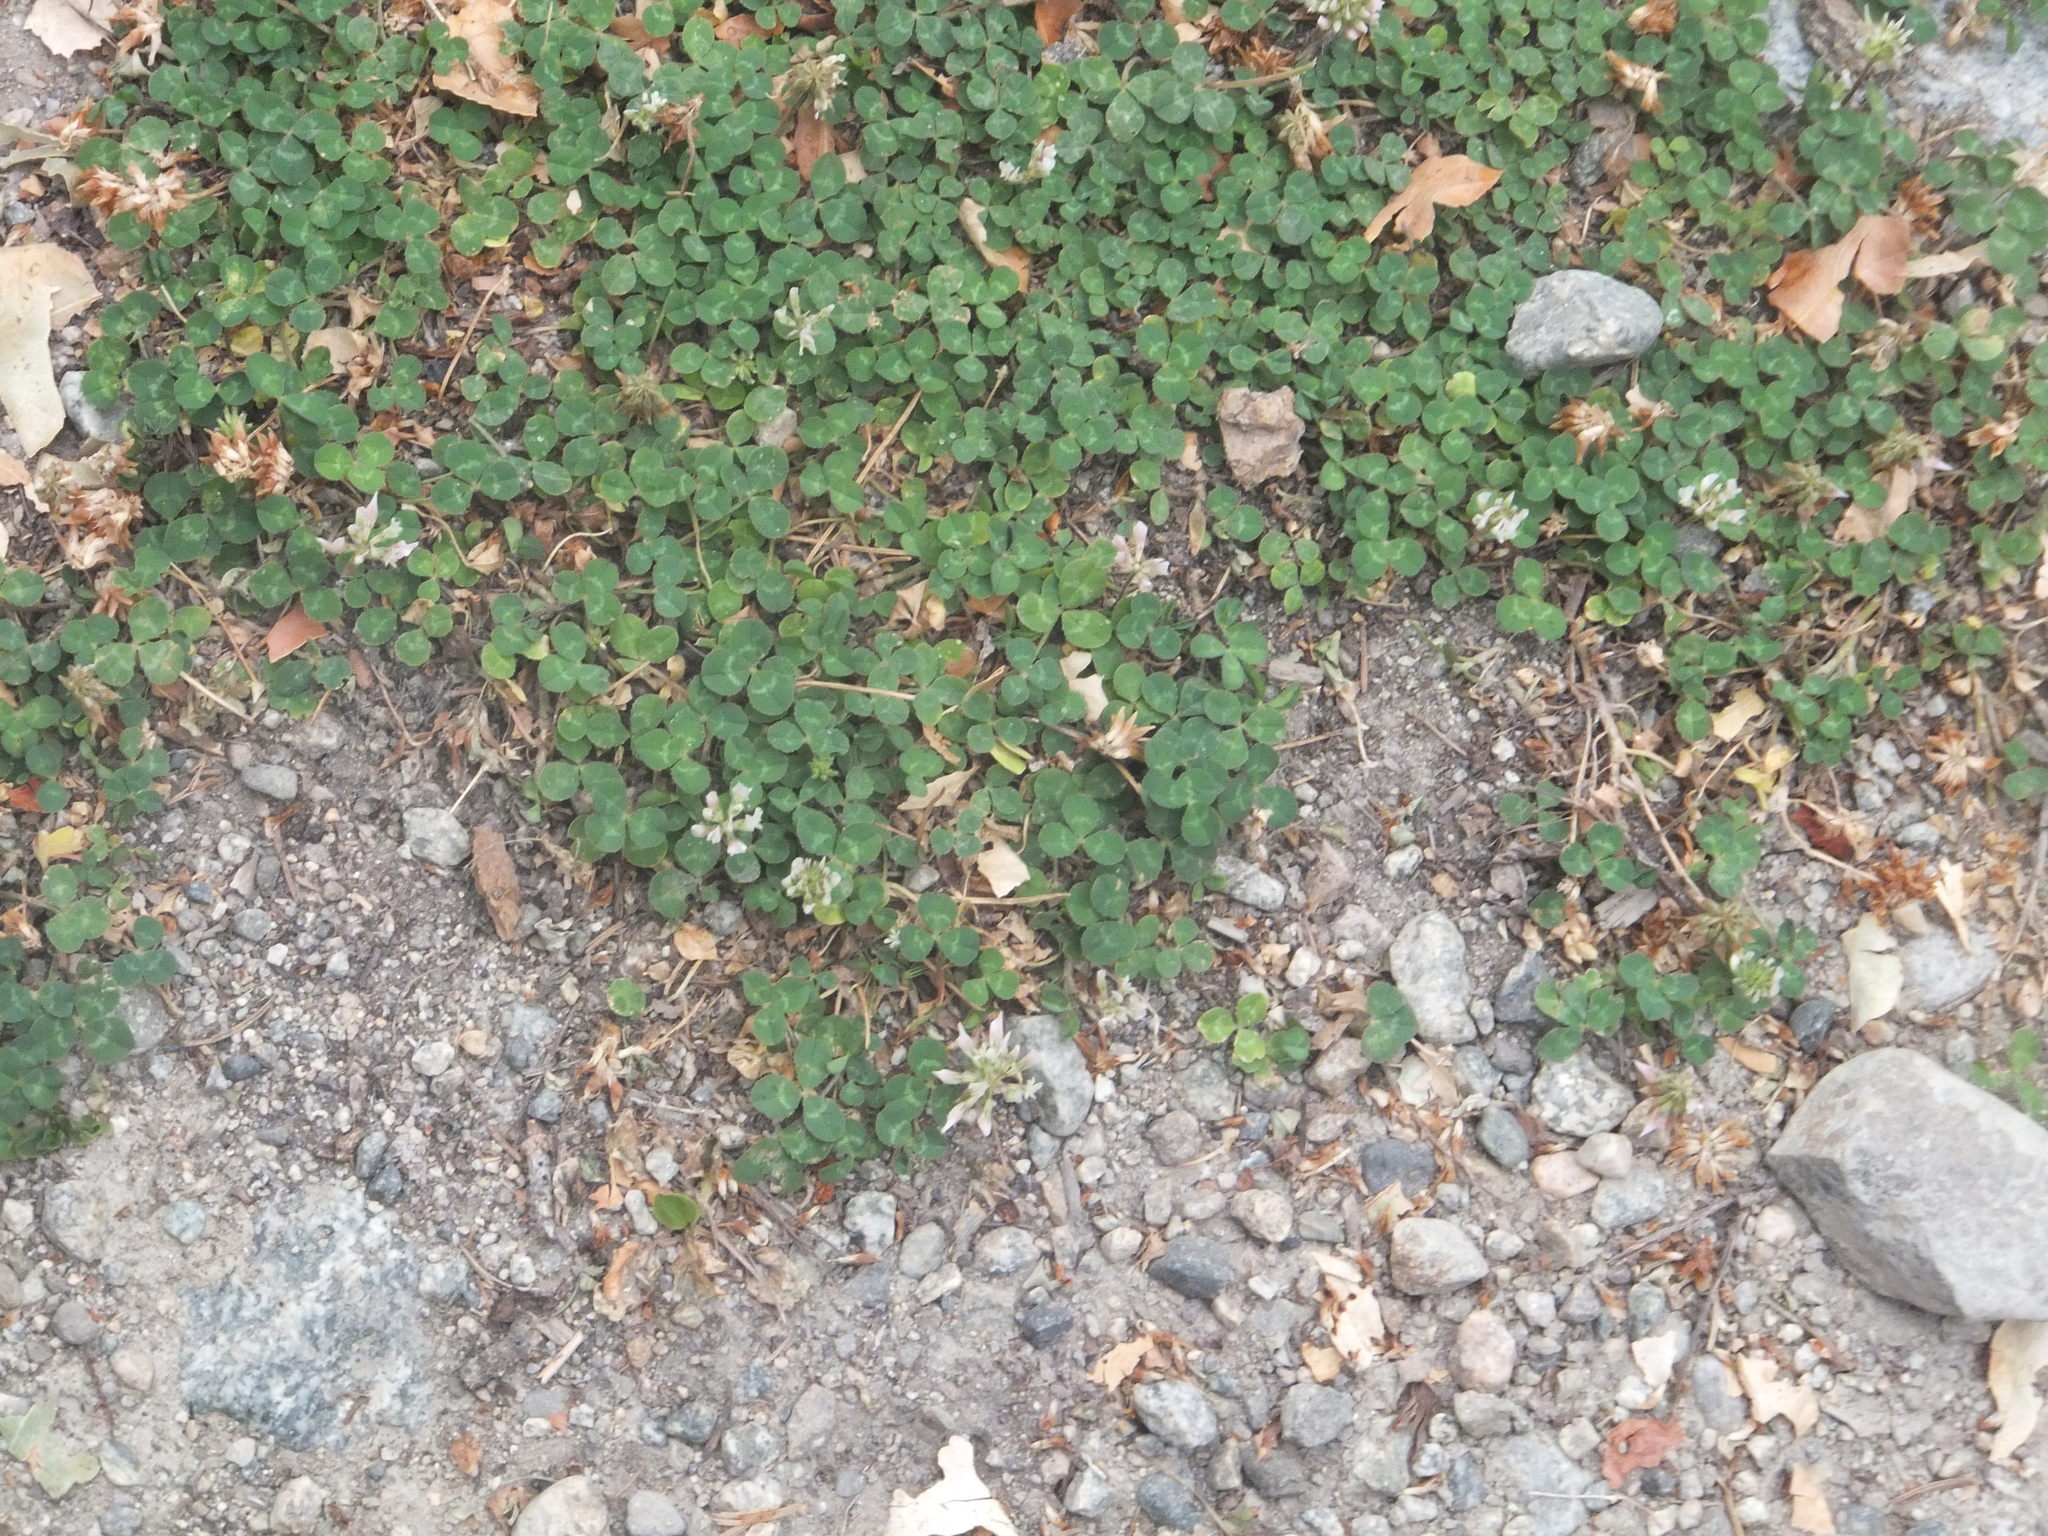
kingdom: Plantae
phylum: Tracheophyta
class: Magnoliopsida
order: Fabales
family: Fabaceae
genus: Trifolium
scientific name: Trifolium repens
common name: White clover
